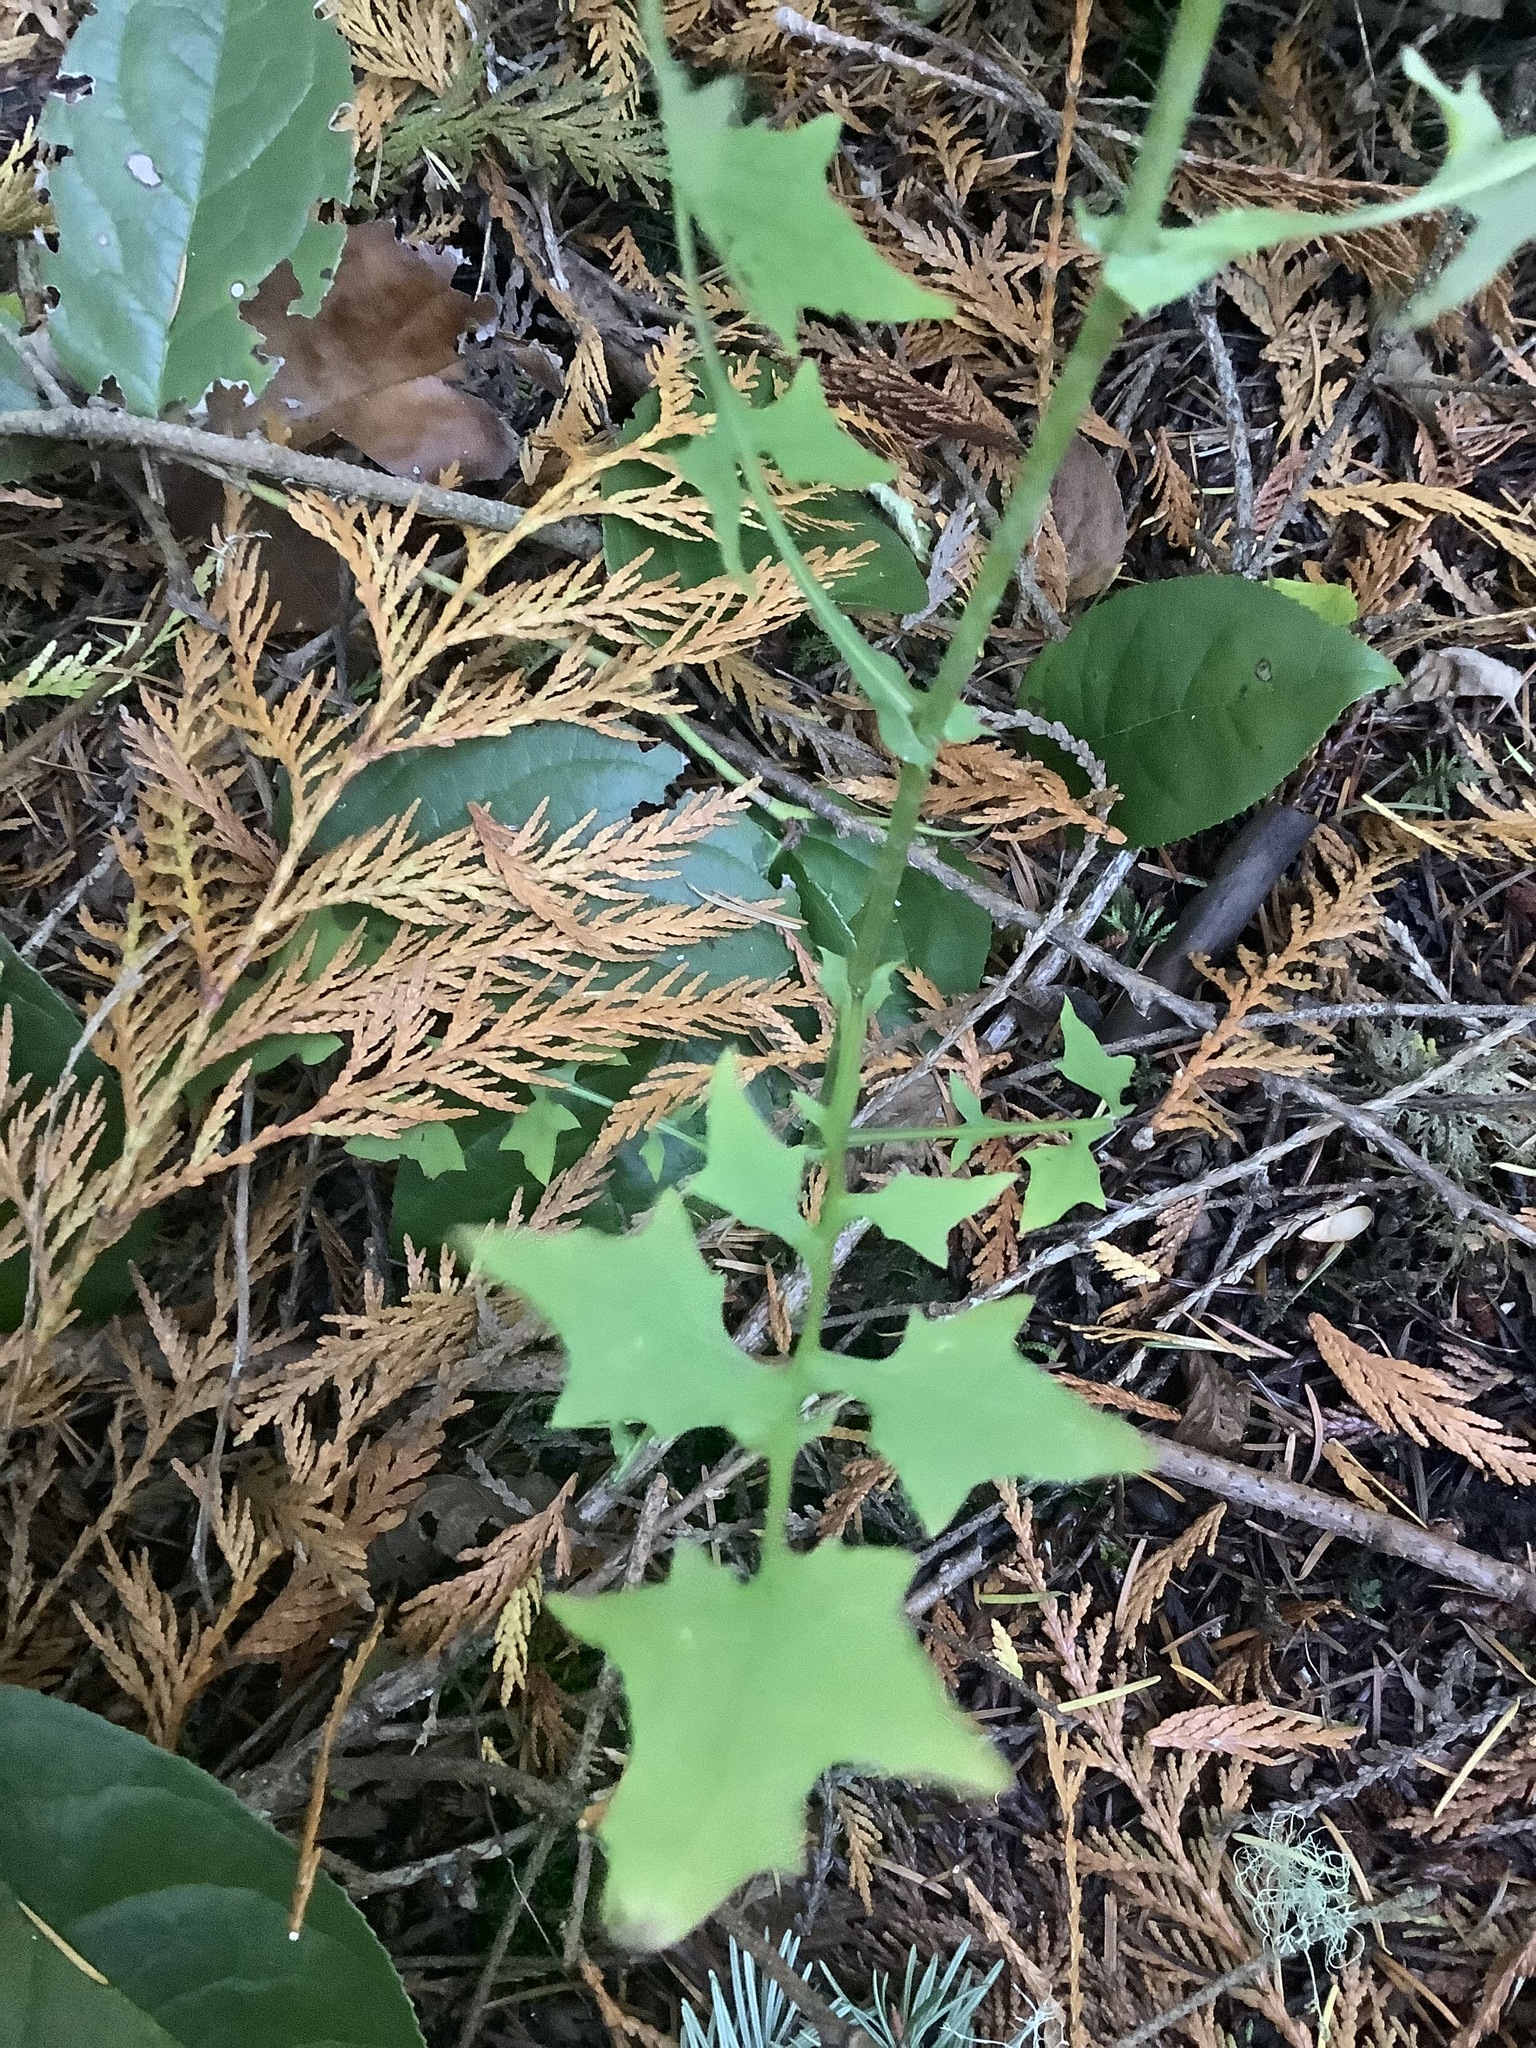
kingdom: Plantae
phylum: Tracheophyta
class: Magnoliopsida
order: Asterales
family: Asteraceae
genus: Mycelis
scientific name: Mycelis muralis
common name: Wall lettuce
